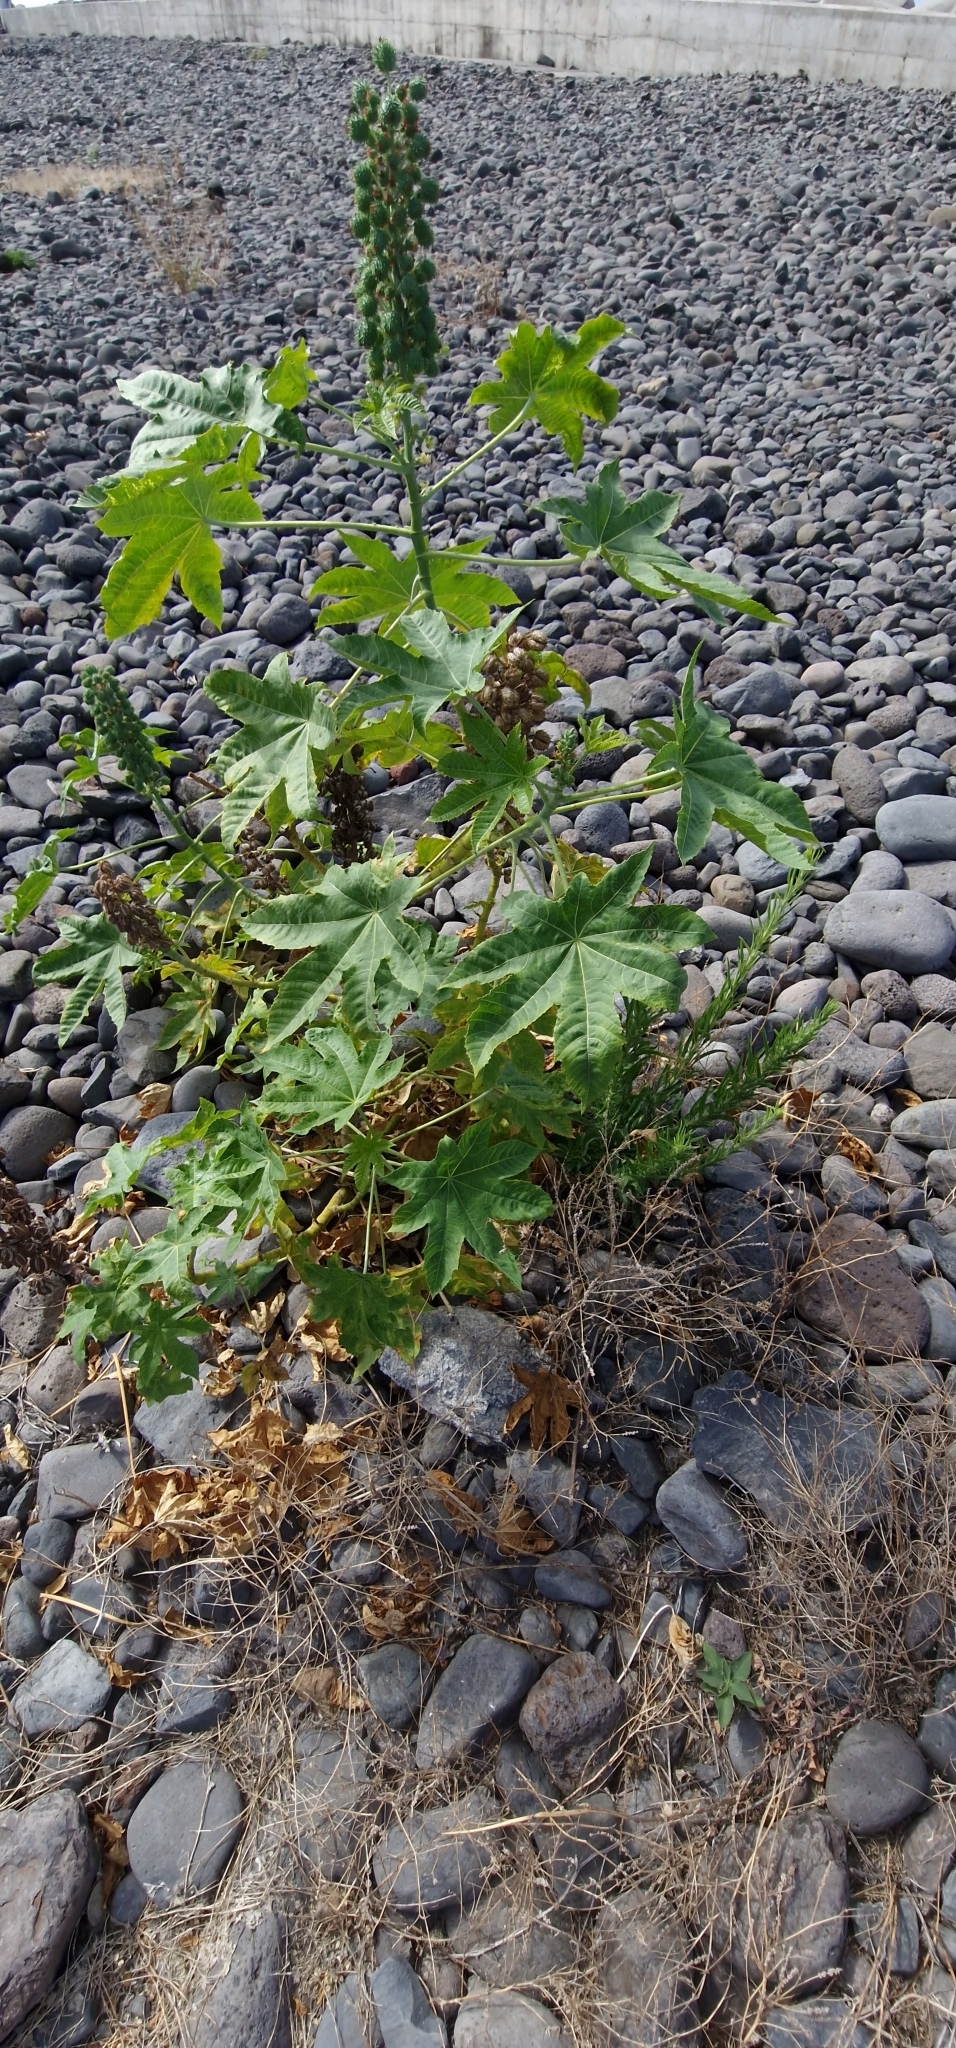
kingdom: Plantae
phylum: Tracheophyta
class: Magnoliopsida
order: Malpighiales
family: Euphorbiaceae
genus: Ricinus
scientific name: Ricinus communis
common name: Castor-oil-plant
